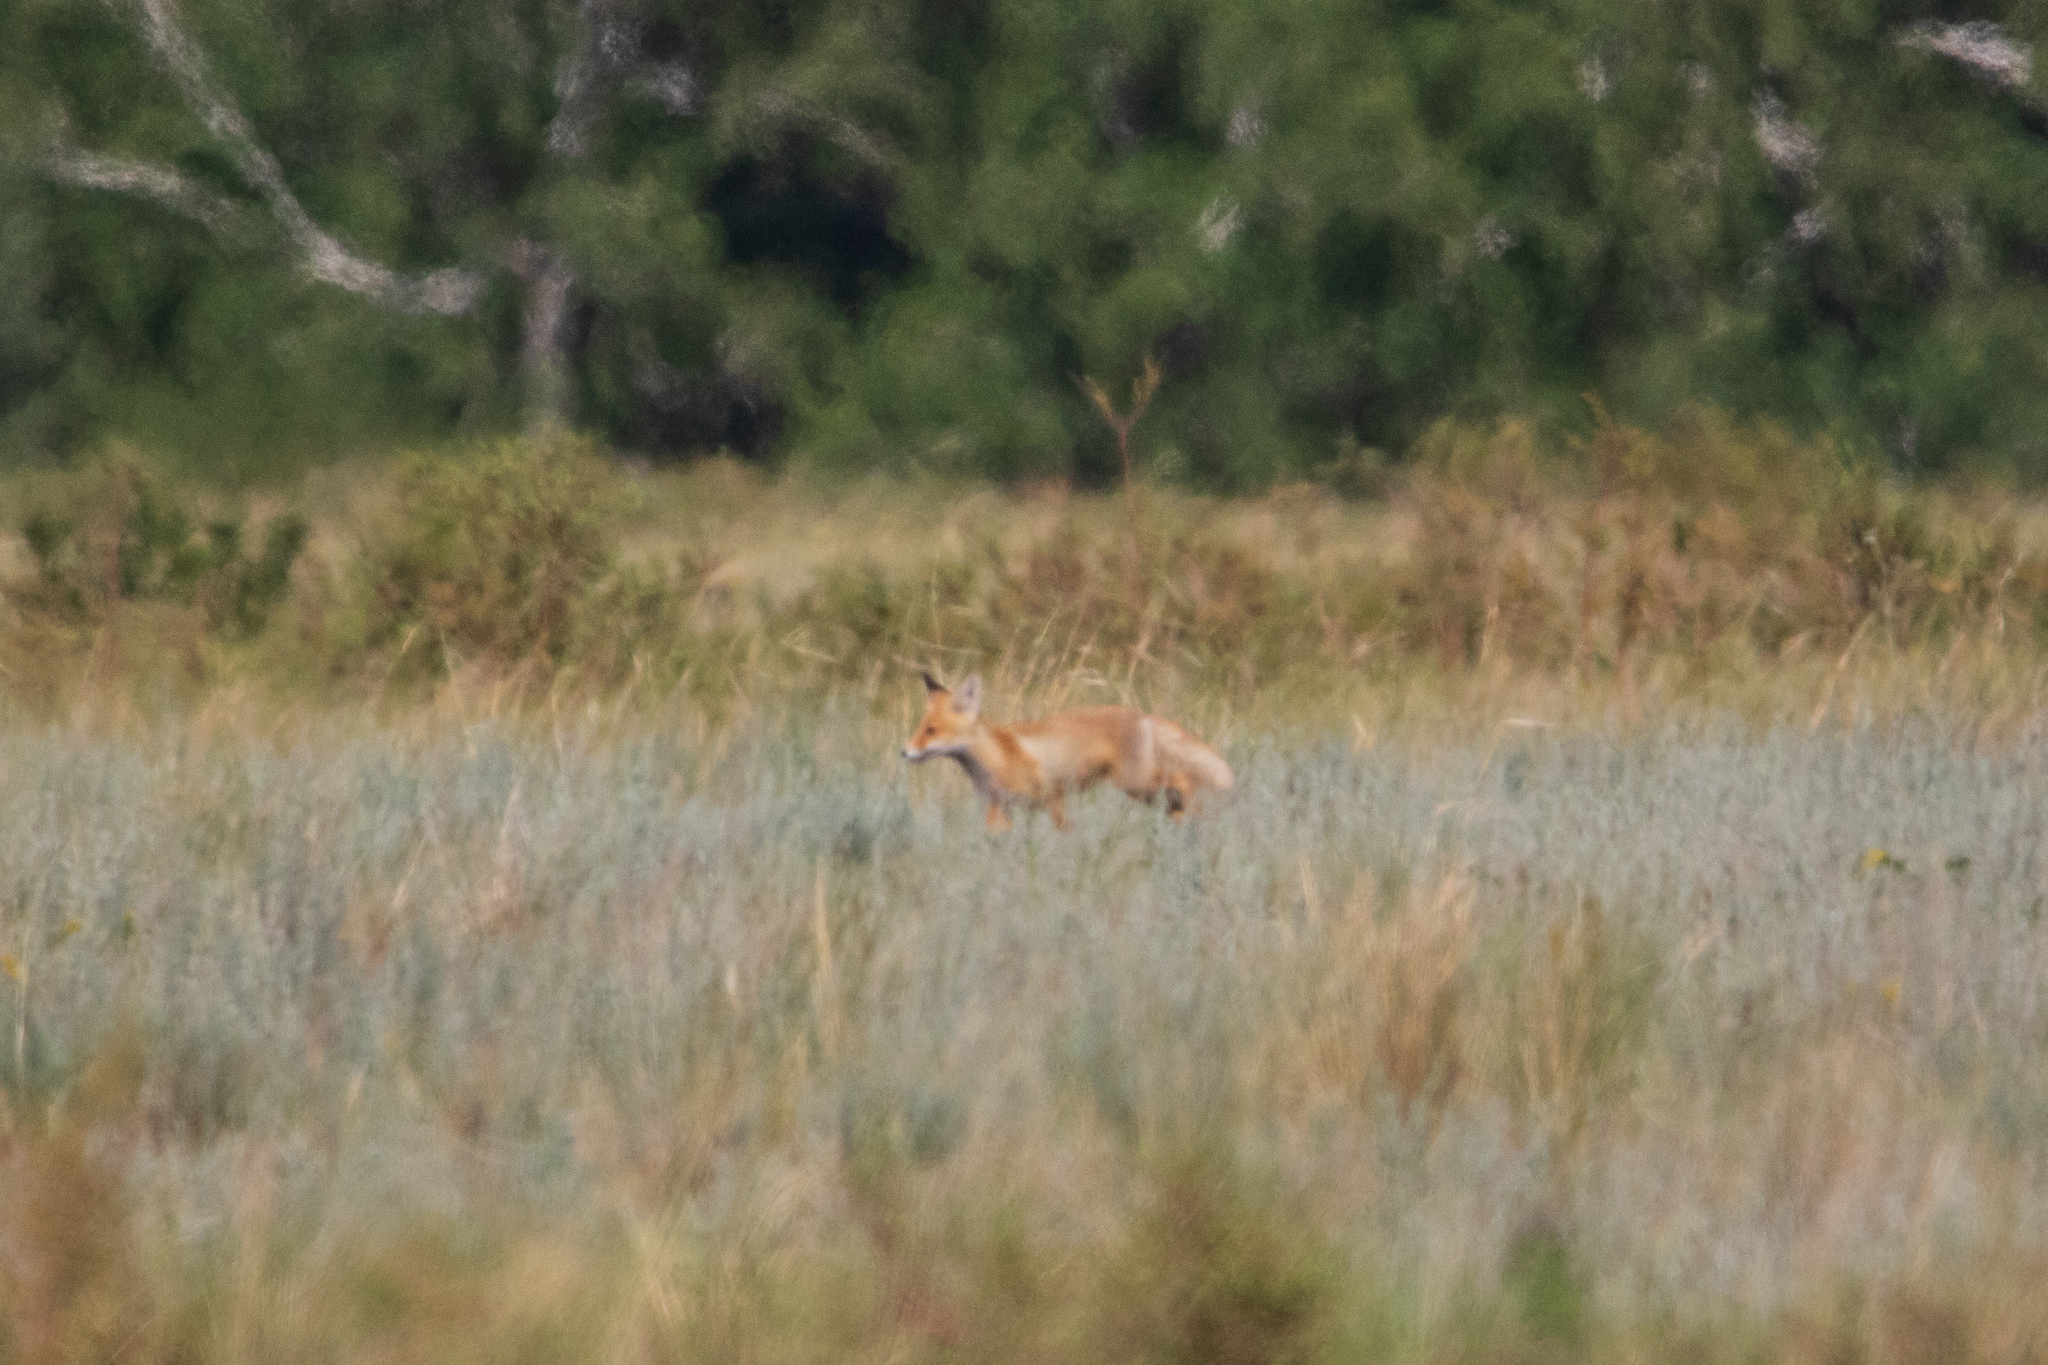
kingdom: Animalia
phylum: Chordata
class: Mammalia
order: Carnivora
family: Canidae
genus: Vulpes
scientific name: Vulpes vulpes
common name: Red fox
